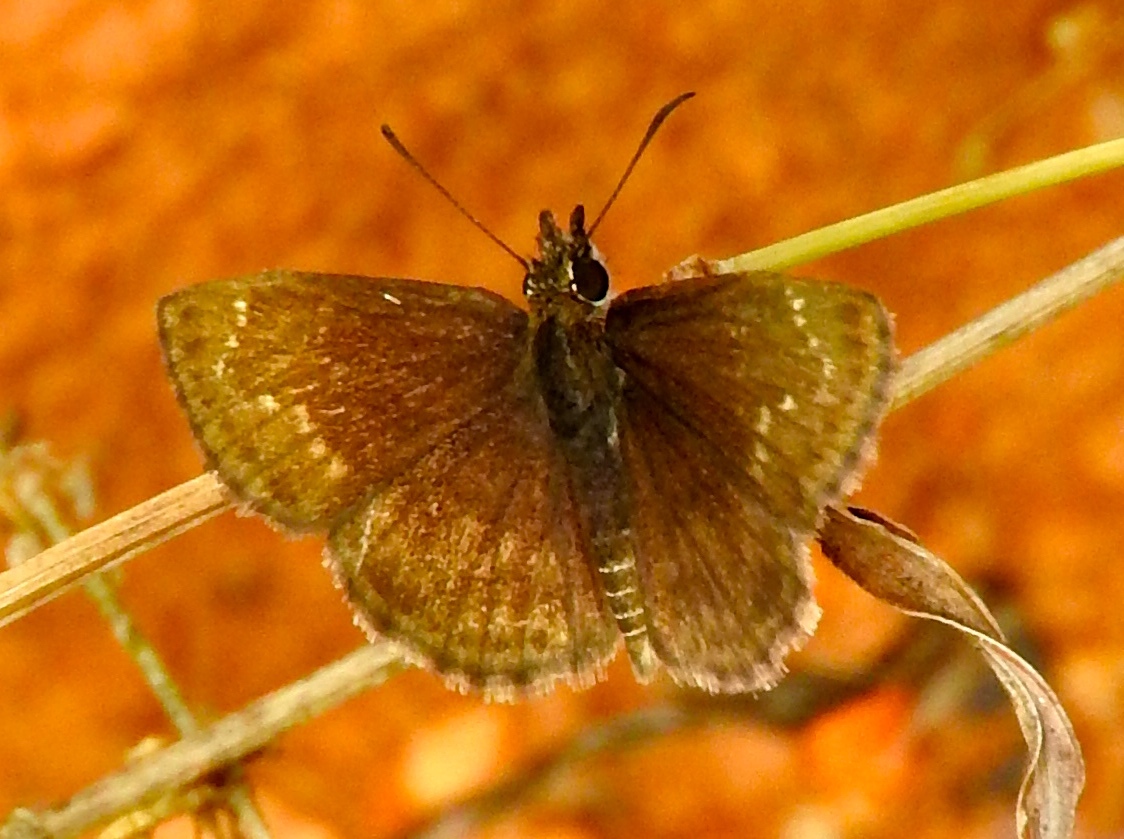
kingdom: Animalia
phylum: Arthropoda
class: Insecta
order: Lepidoptera
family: Hesperiidae
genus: Zopyrion
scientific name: Zopyrion sandace
